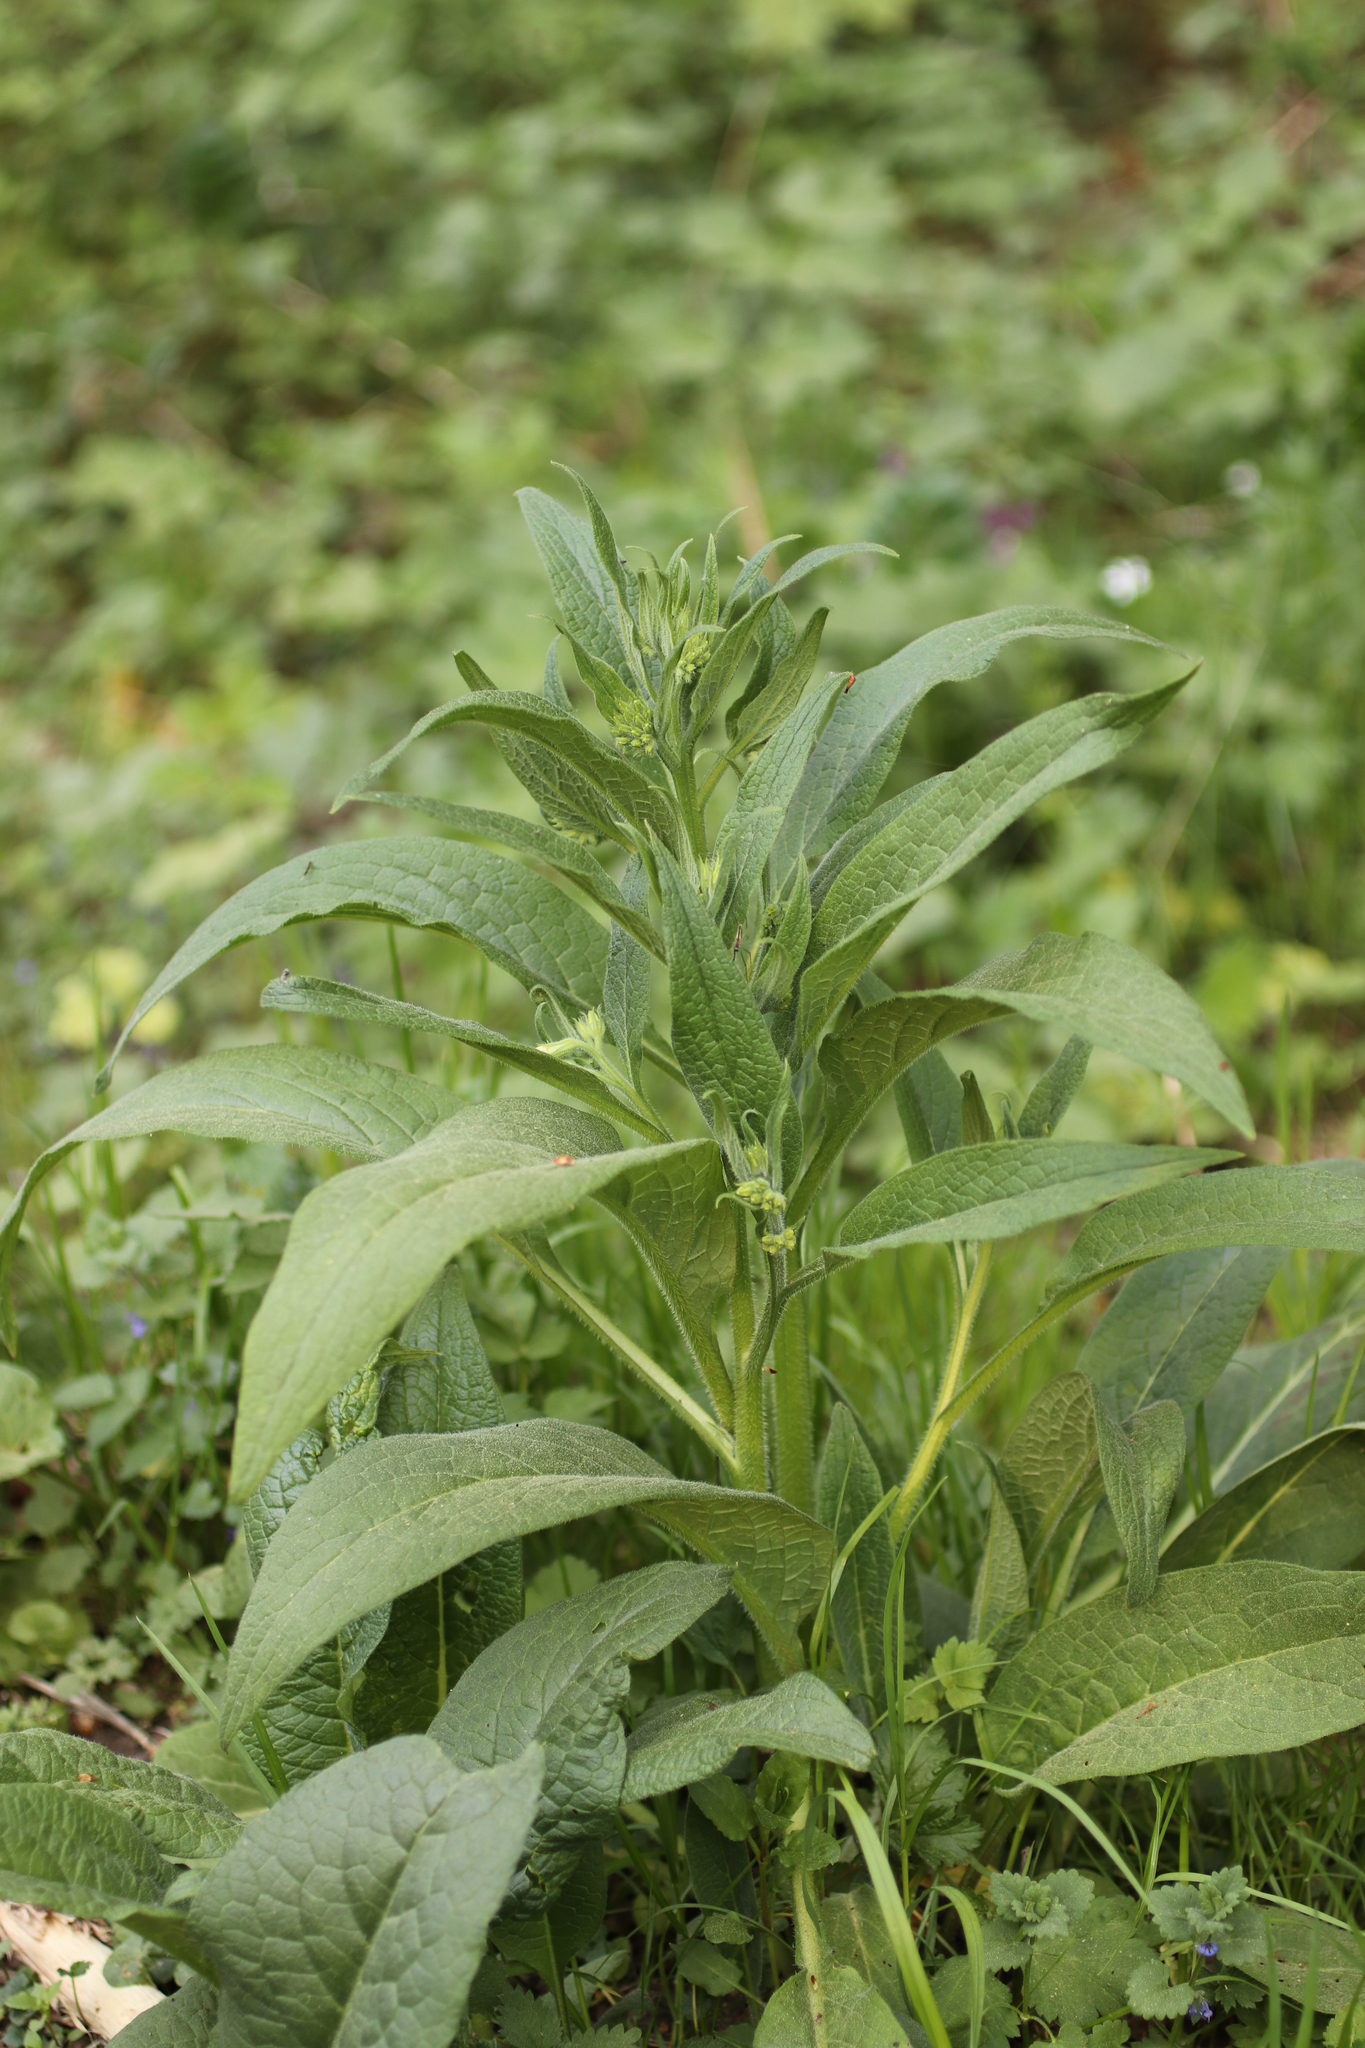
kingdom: Plantae
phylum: Tracheophyta
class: Magnoliopsida
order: Boraginales
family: Boraginaceae
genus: Symphytum
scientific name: Symphytum officinale
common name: Common comfrey
